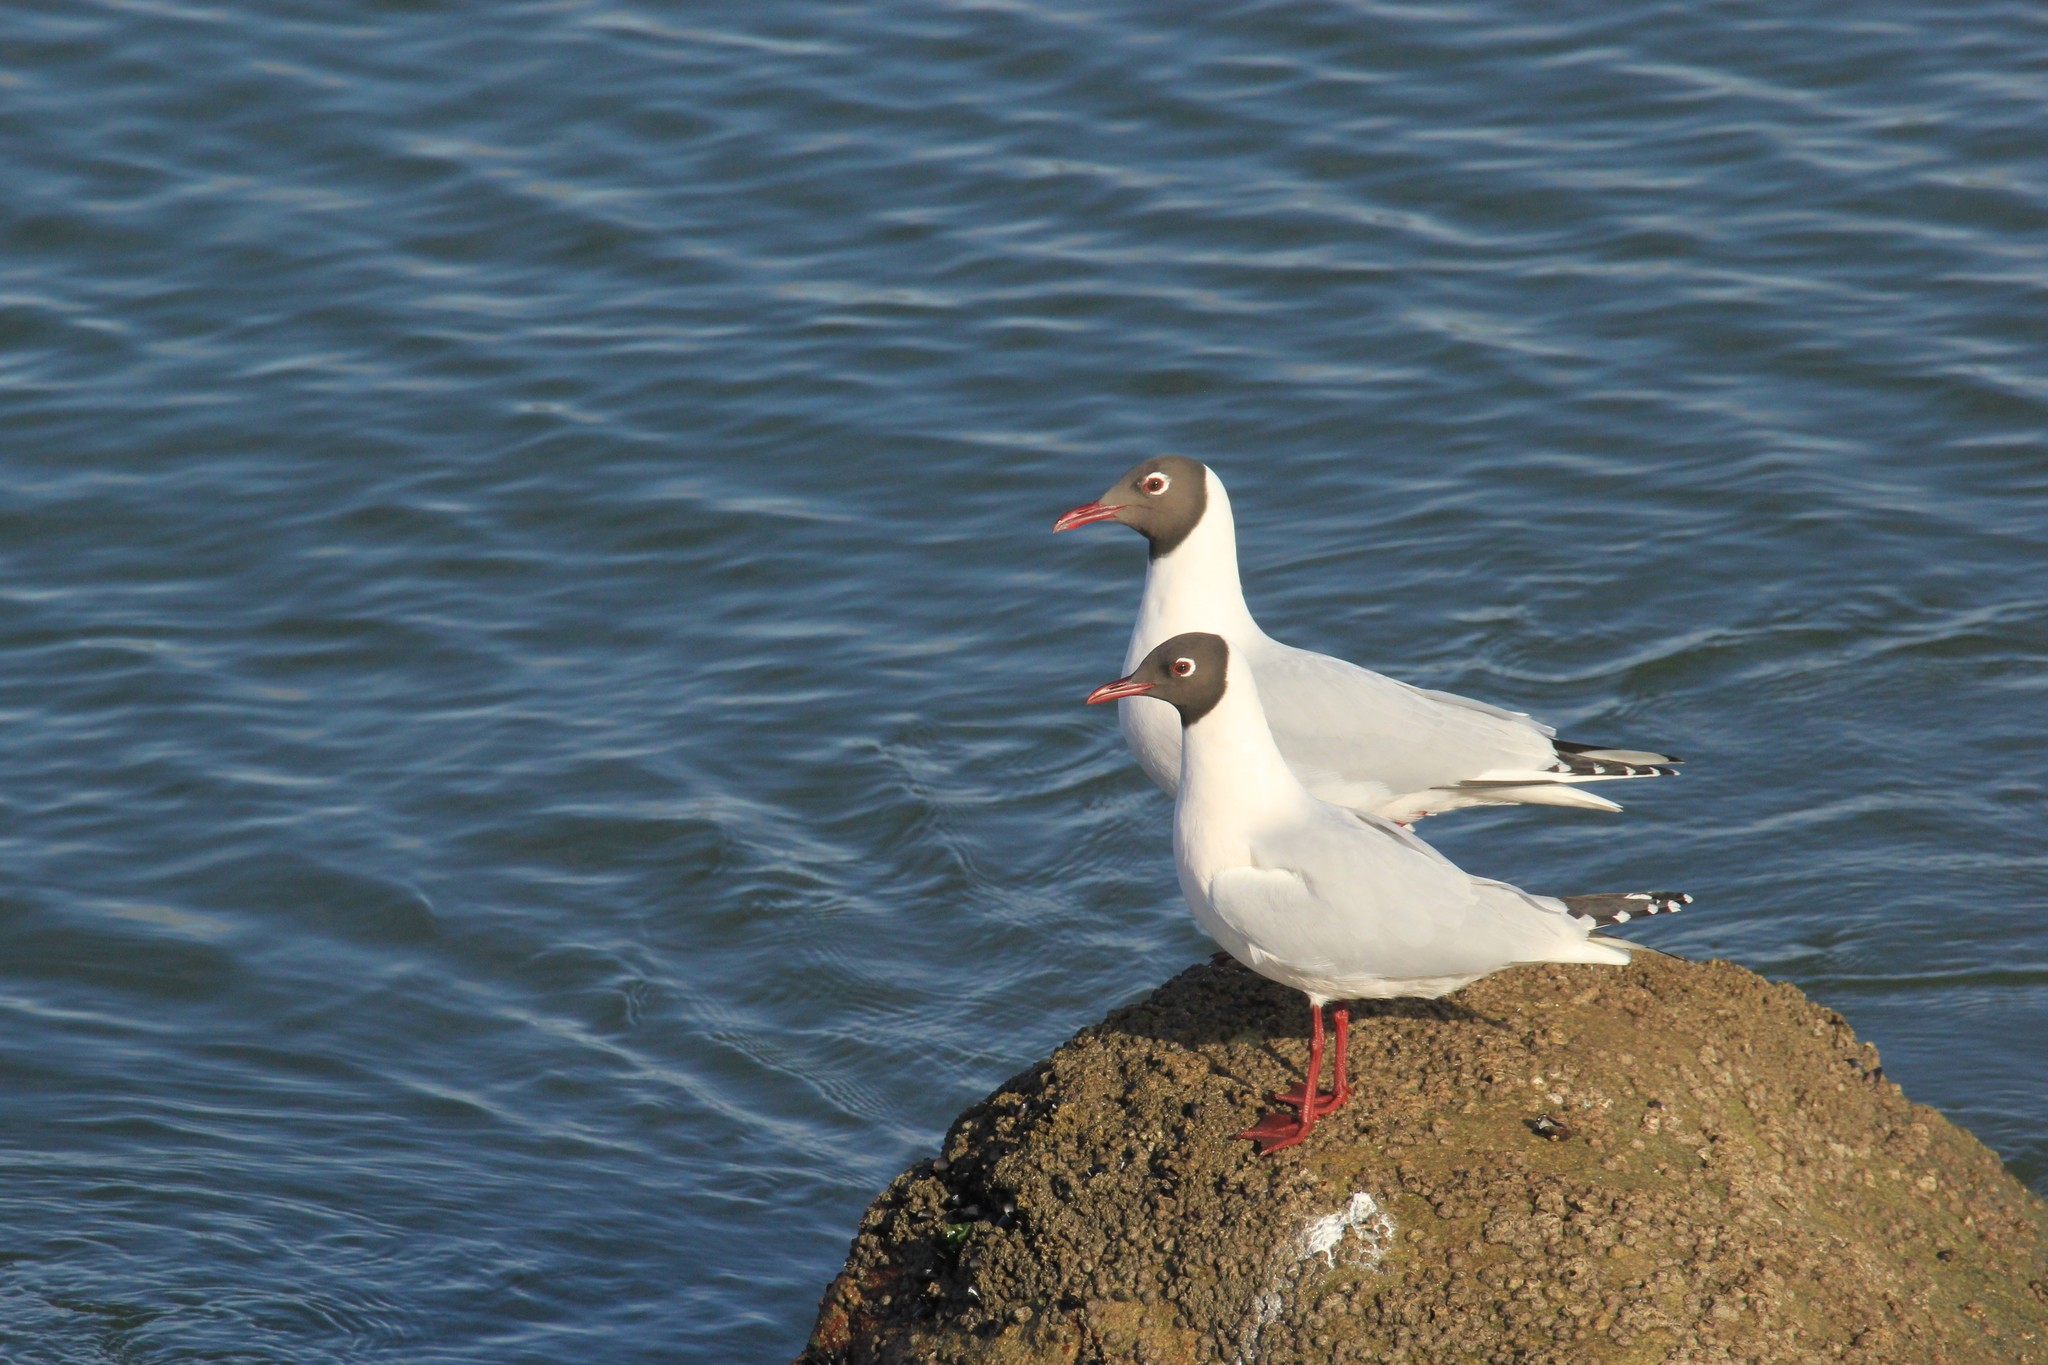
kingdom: Animalia
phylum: Chordata
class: Aves
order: Charadriiformes
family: Laridae
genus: Chroicocephalus
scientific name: Chroicocephalus maculipennis
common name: Brown-hooded gull
